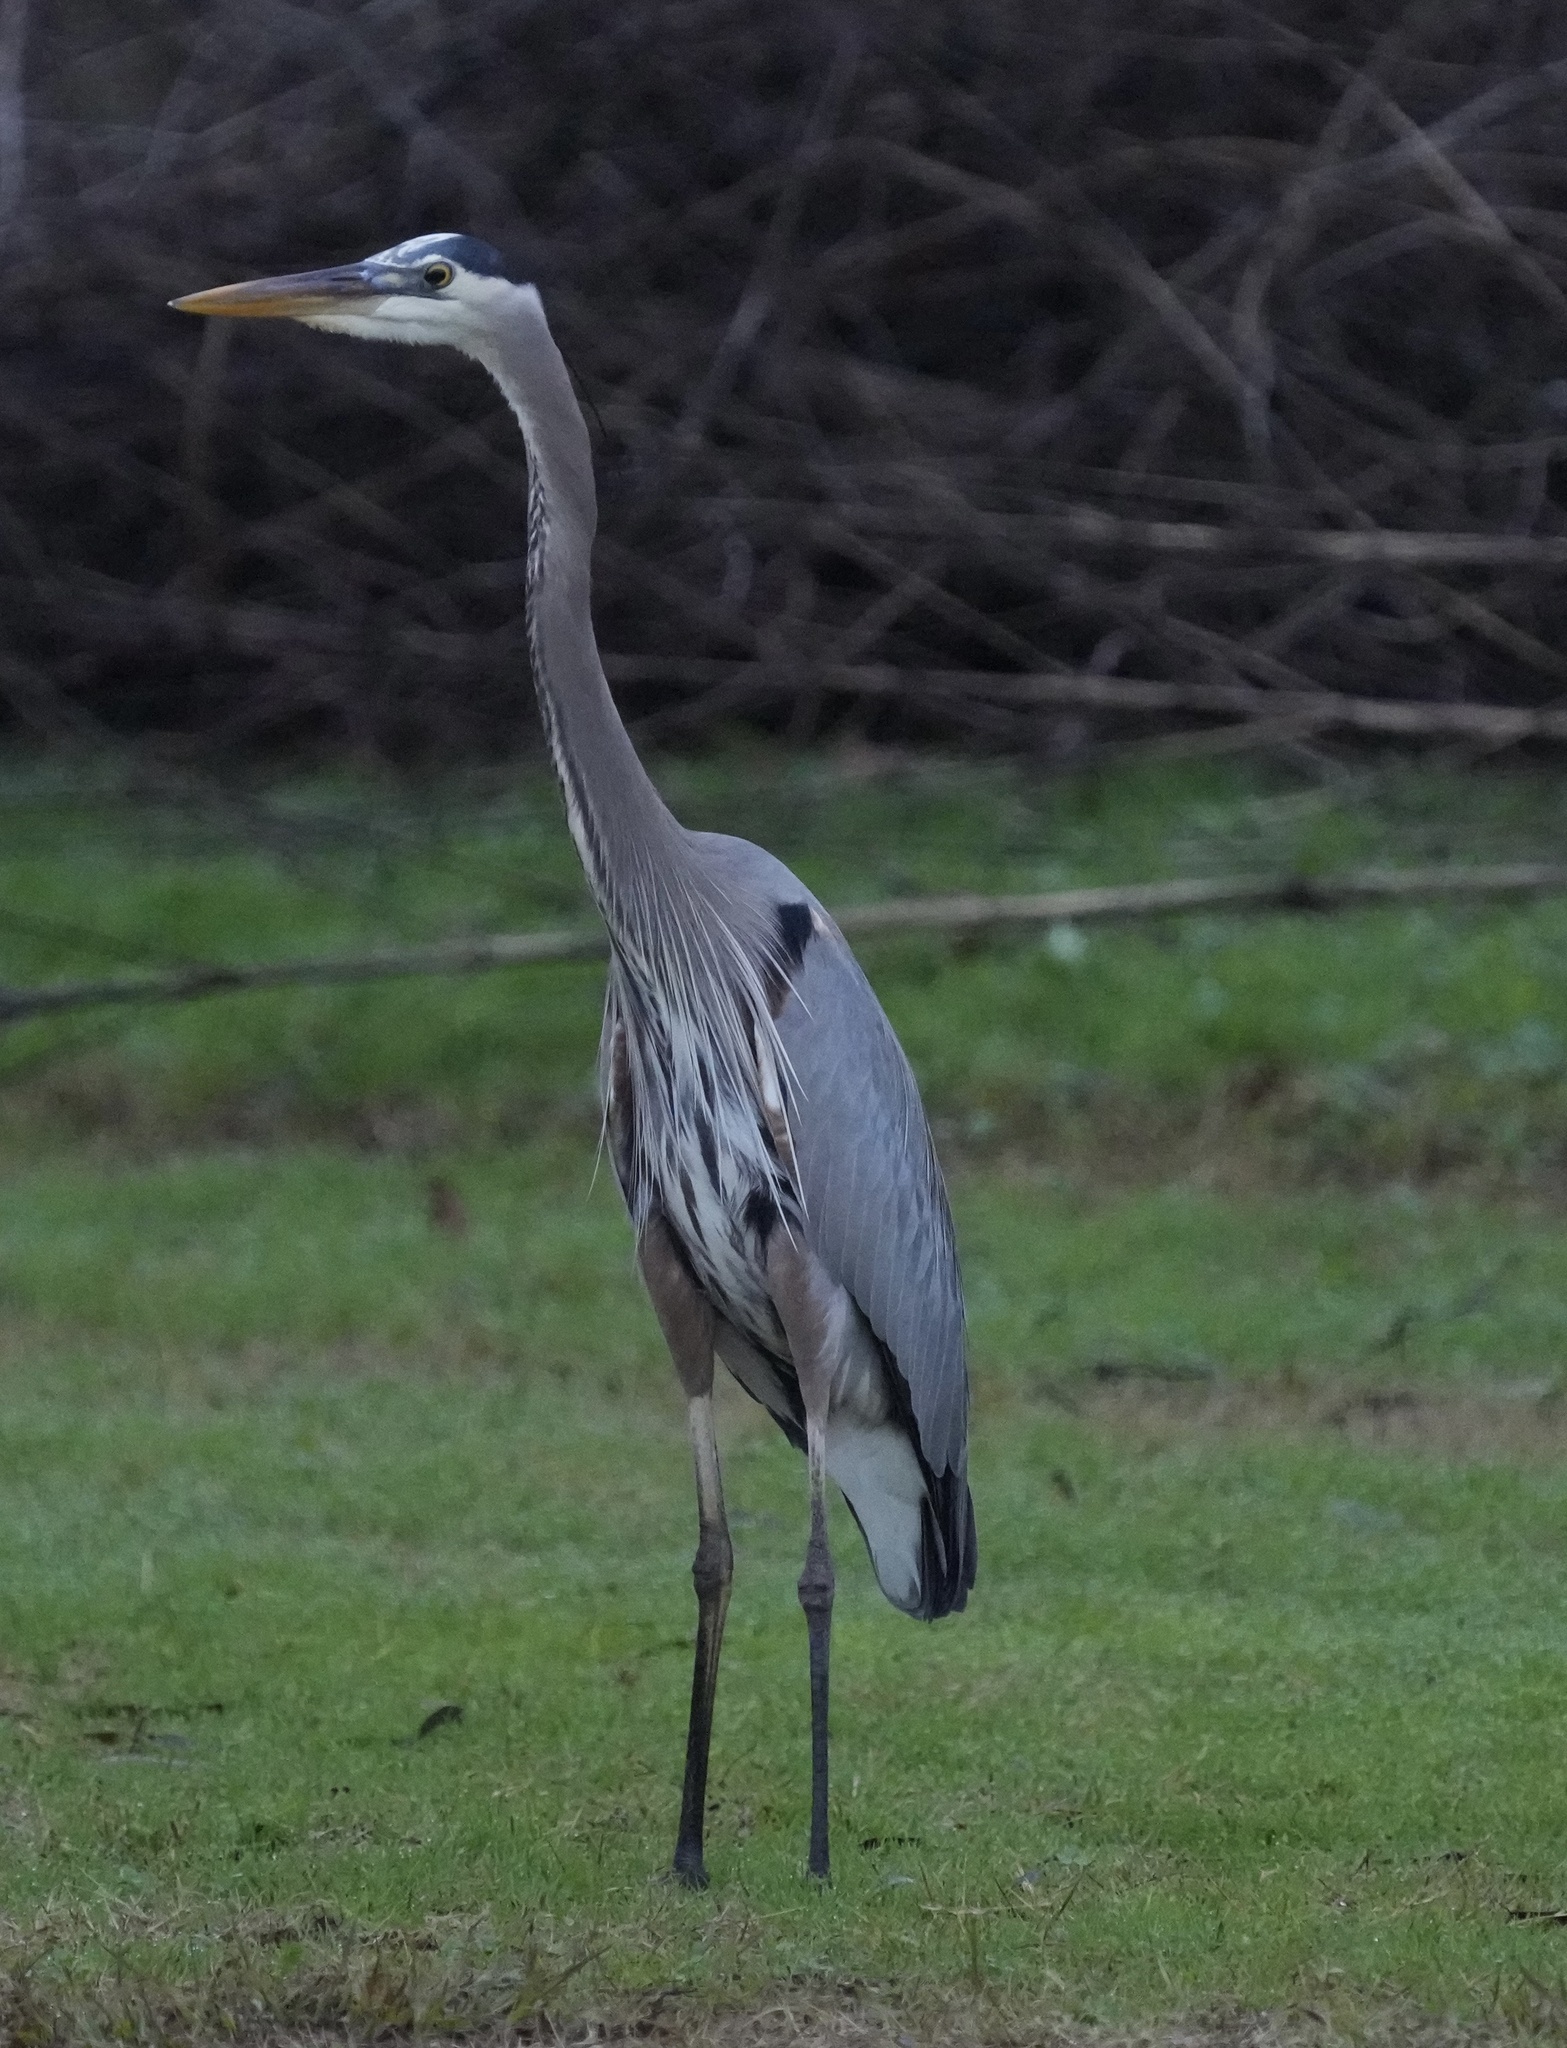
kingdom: Animalia
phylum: Chordata
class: Aves
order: Pelecaniformes
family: Ardeidae
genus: Ardea
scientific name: Ardea herodias
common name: Great blue heron
